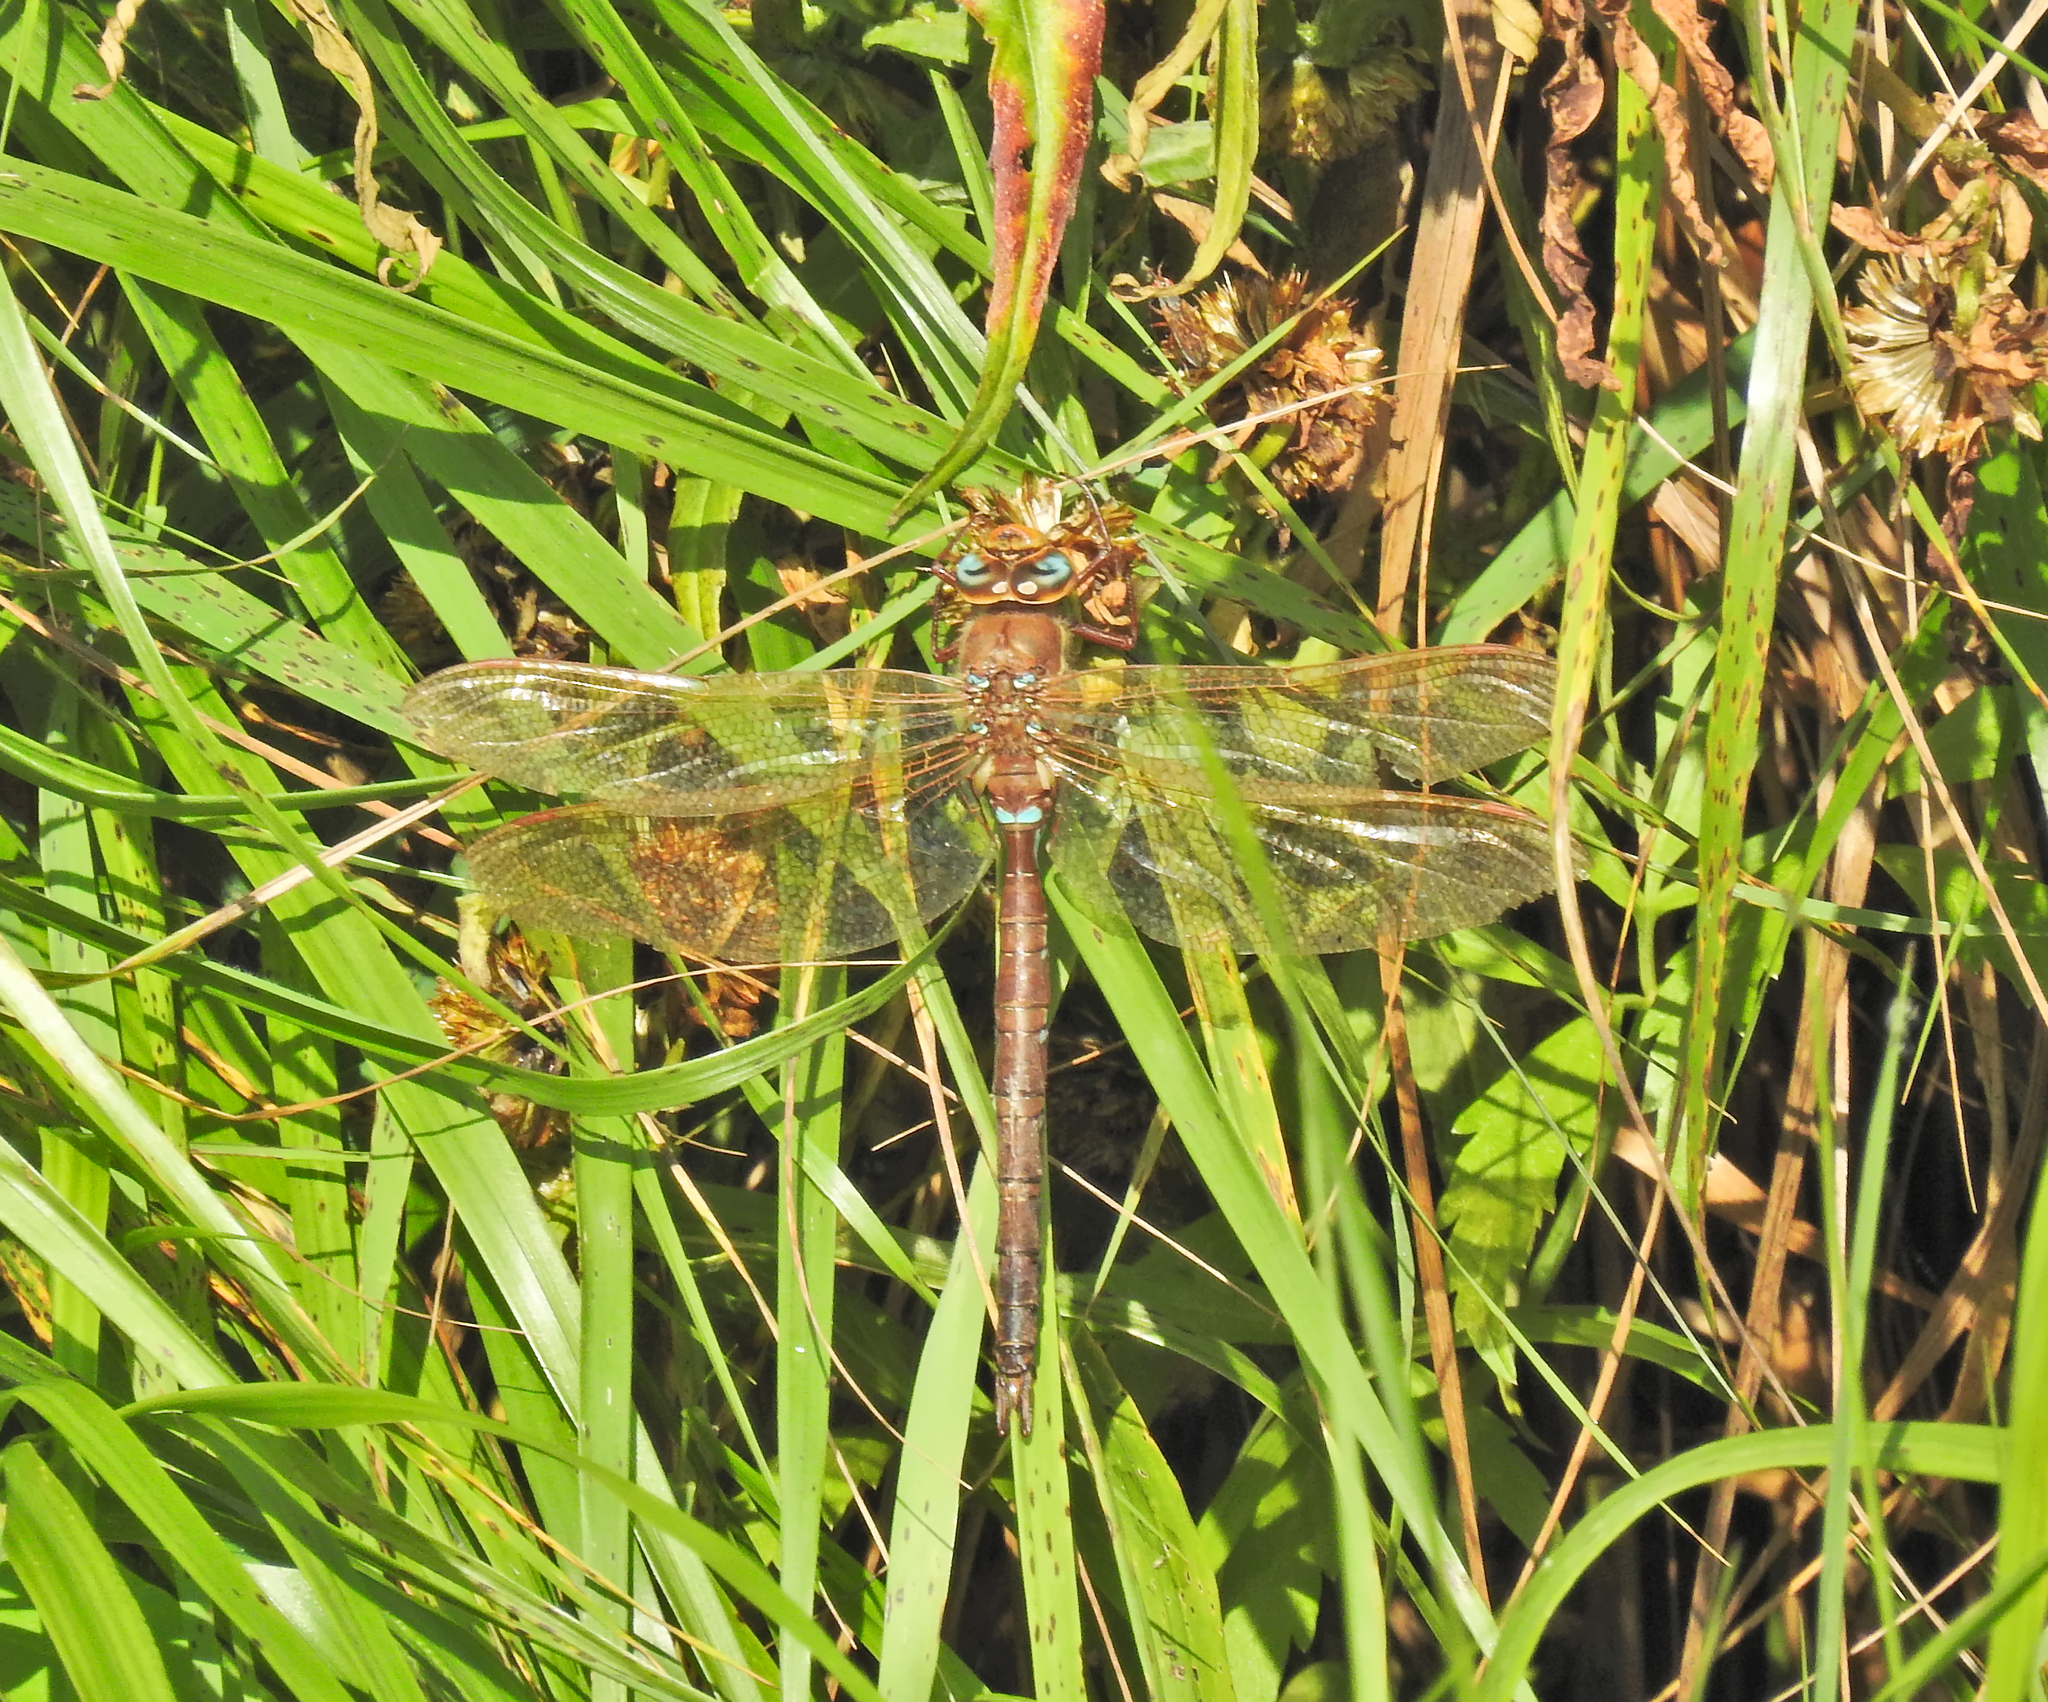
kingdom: Animalia
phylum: Arthropoda
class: Insecta
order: Odonata
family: Aeshnidae
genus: Aeshna
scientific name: Aeshna grandis
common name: Brown hawker
